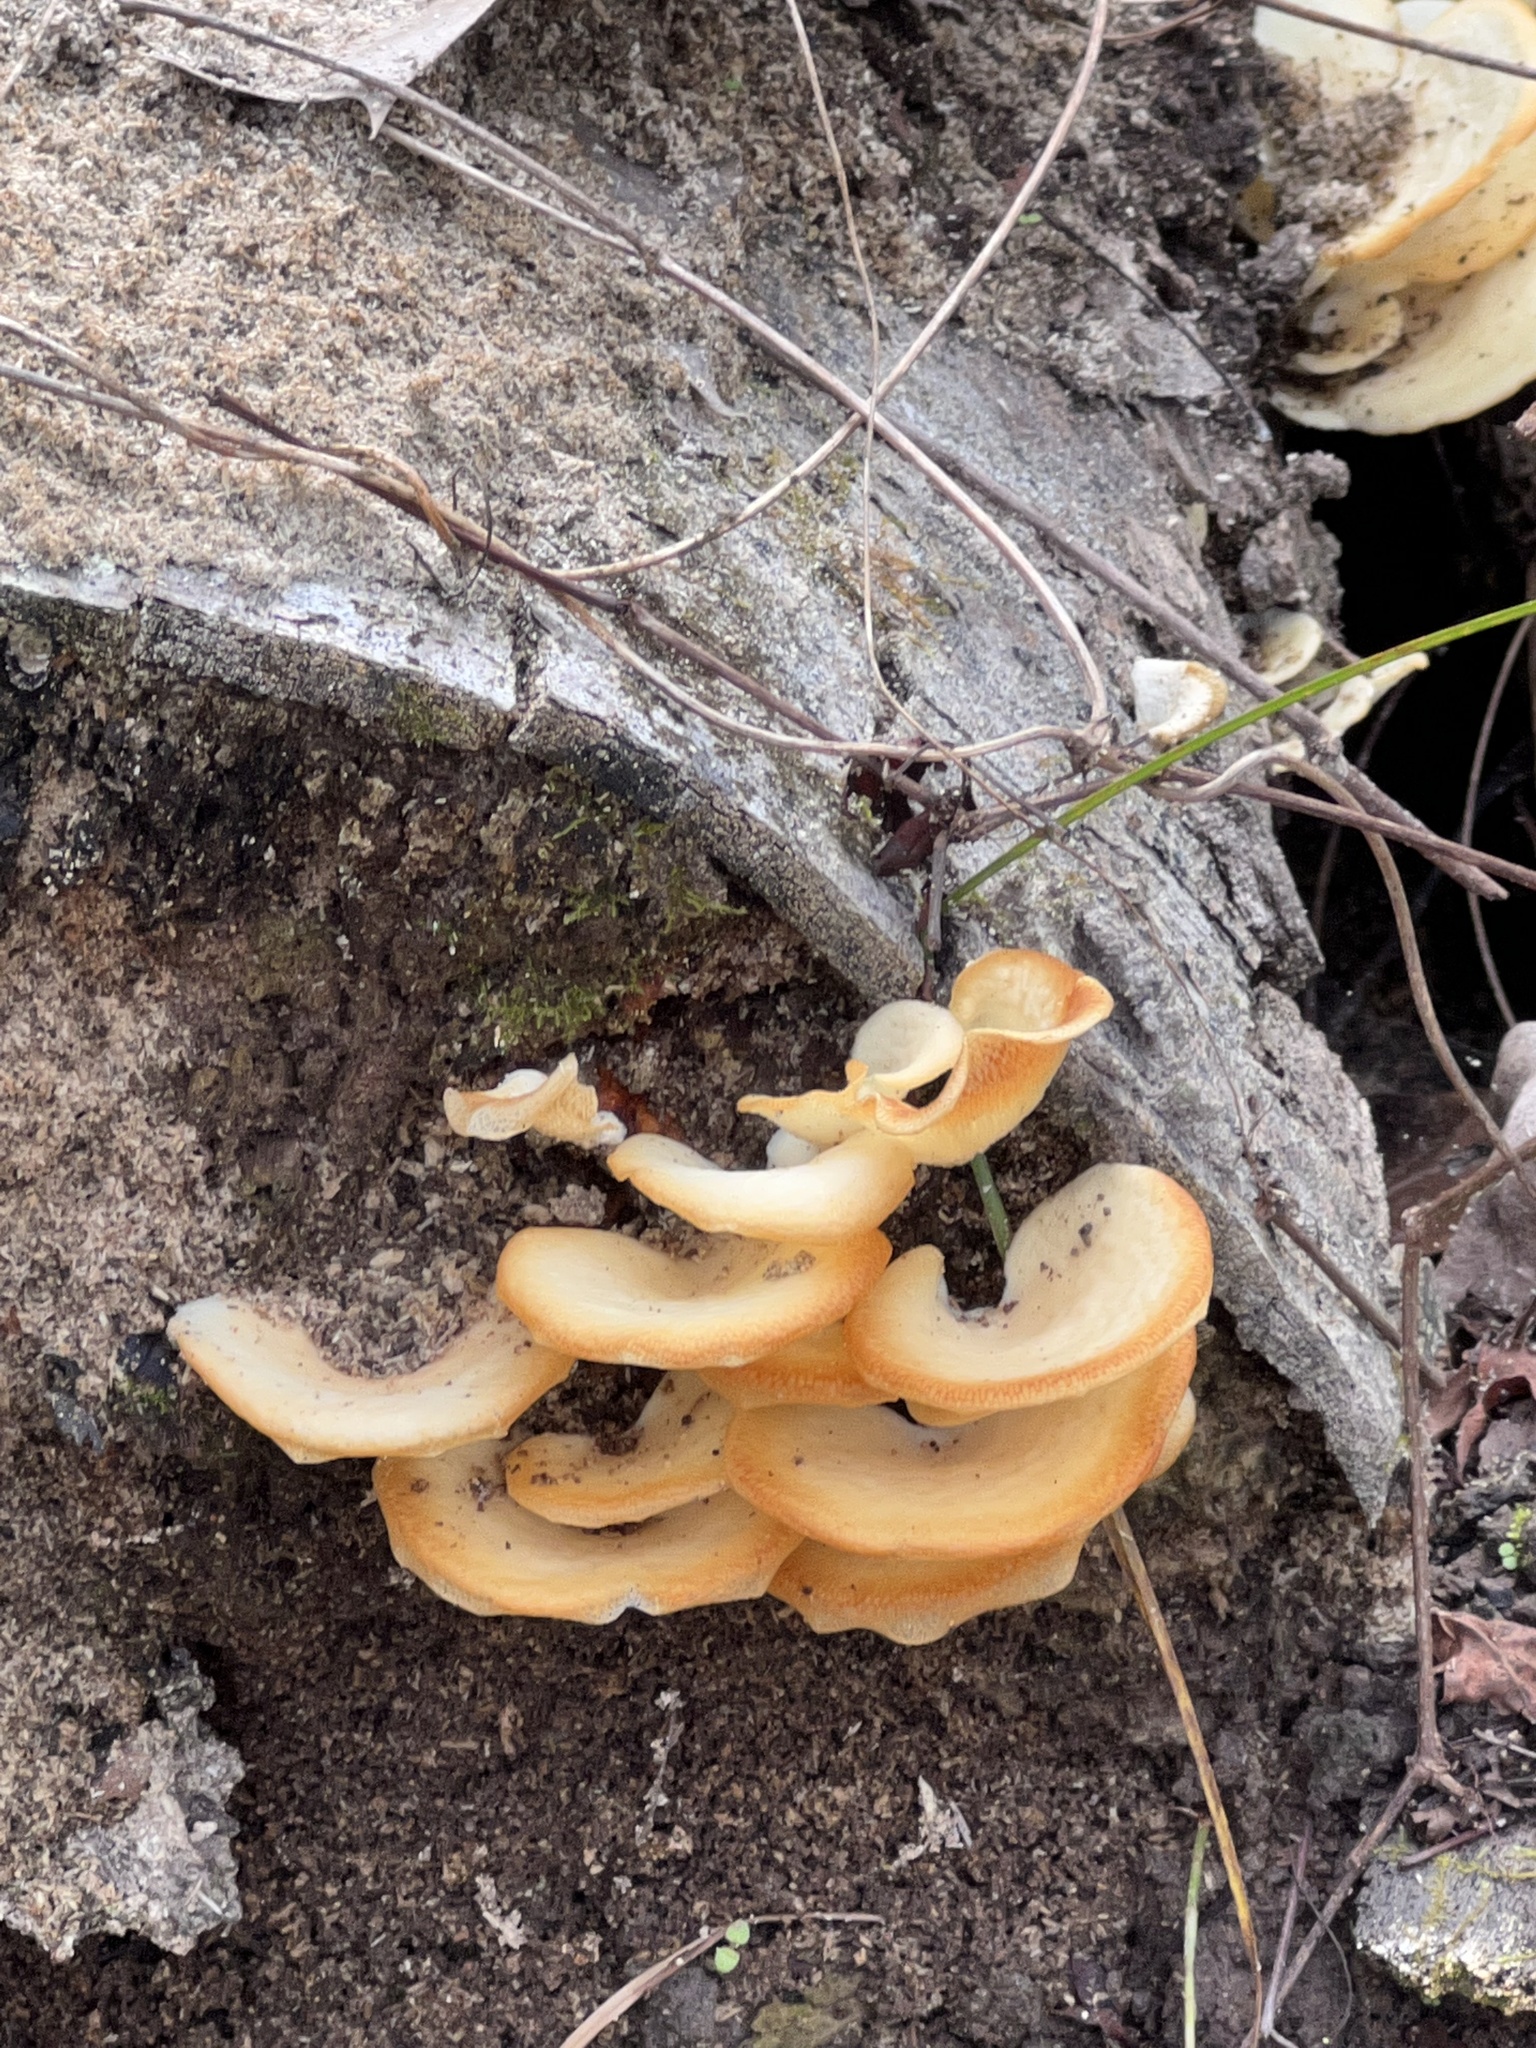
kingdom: Fungi
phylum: Basidiomycota
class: Agaricomycetes
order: Polyporales
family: Polyporaceae
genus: Favolus
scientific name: Favolus tenuiculus
